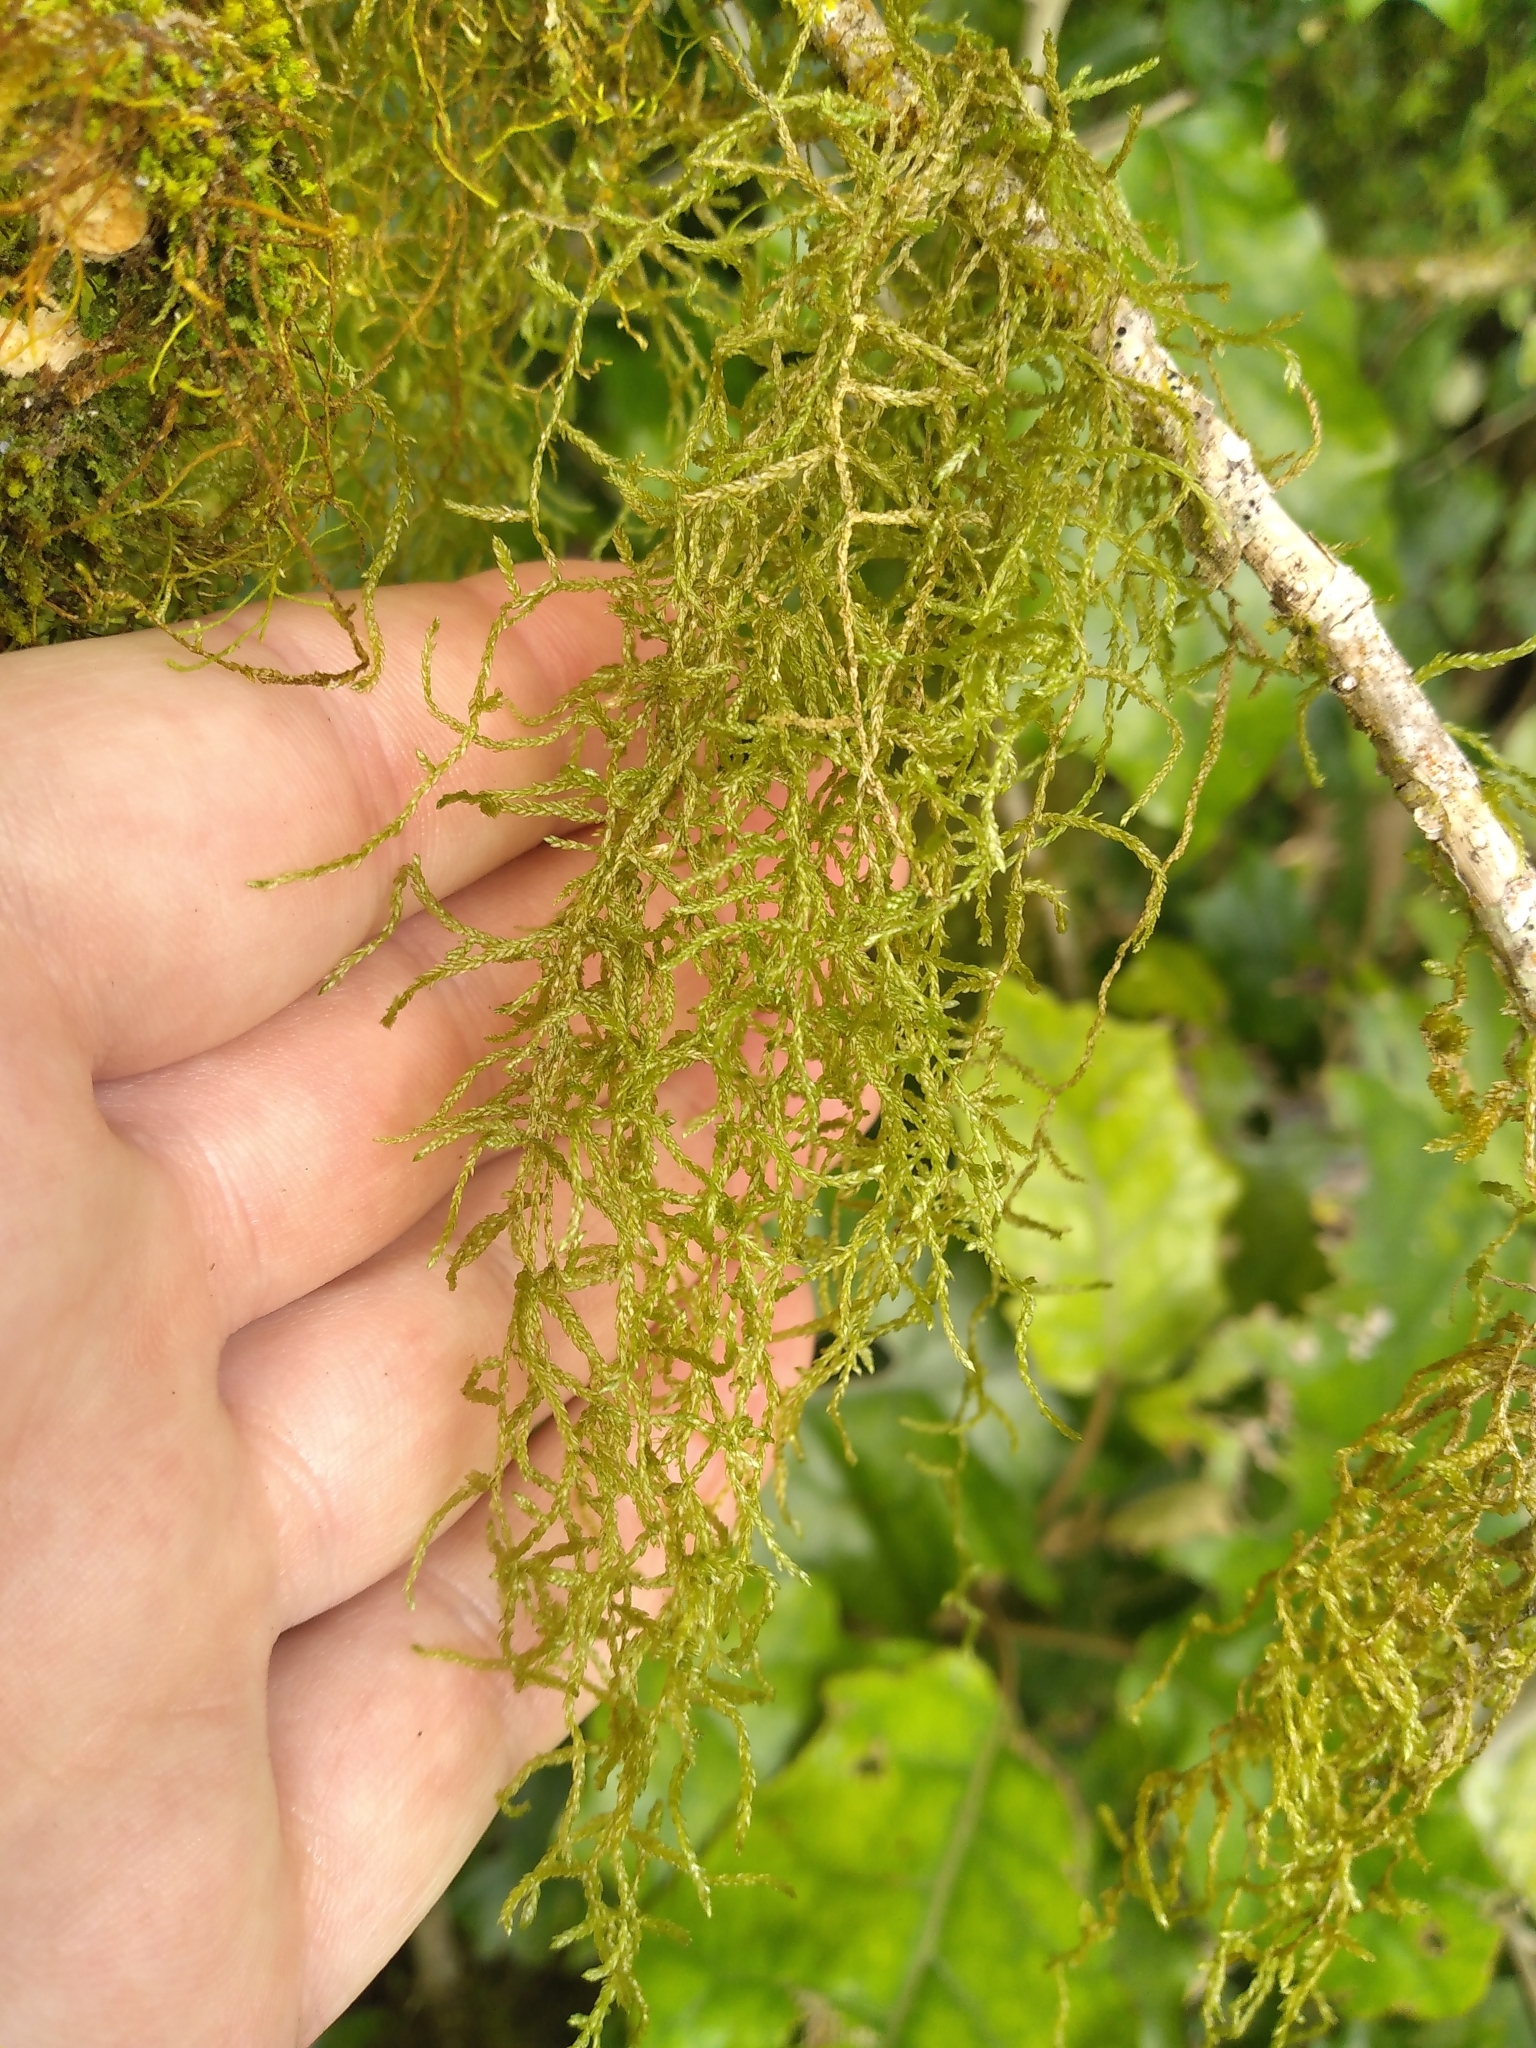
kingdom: Plantae
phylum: Bryophyta
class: Bryopsida
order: Hypnales
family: Lembophyllaceae
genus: Weymouthia
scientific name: Weymouthia mollis
